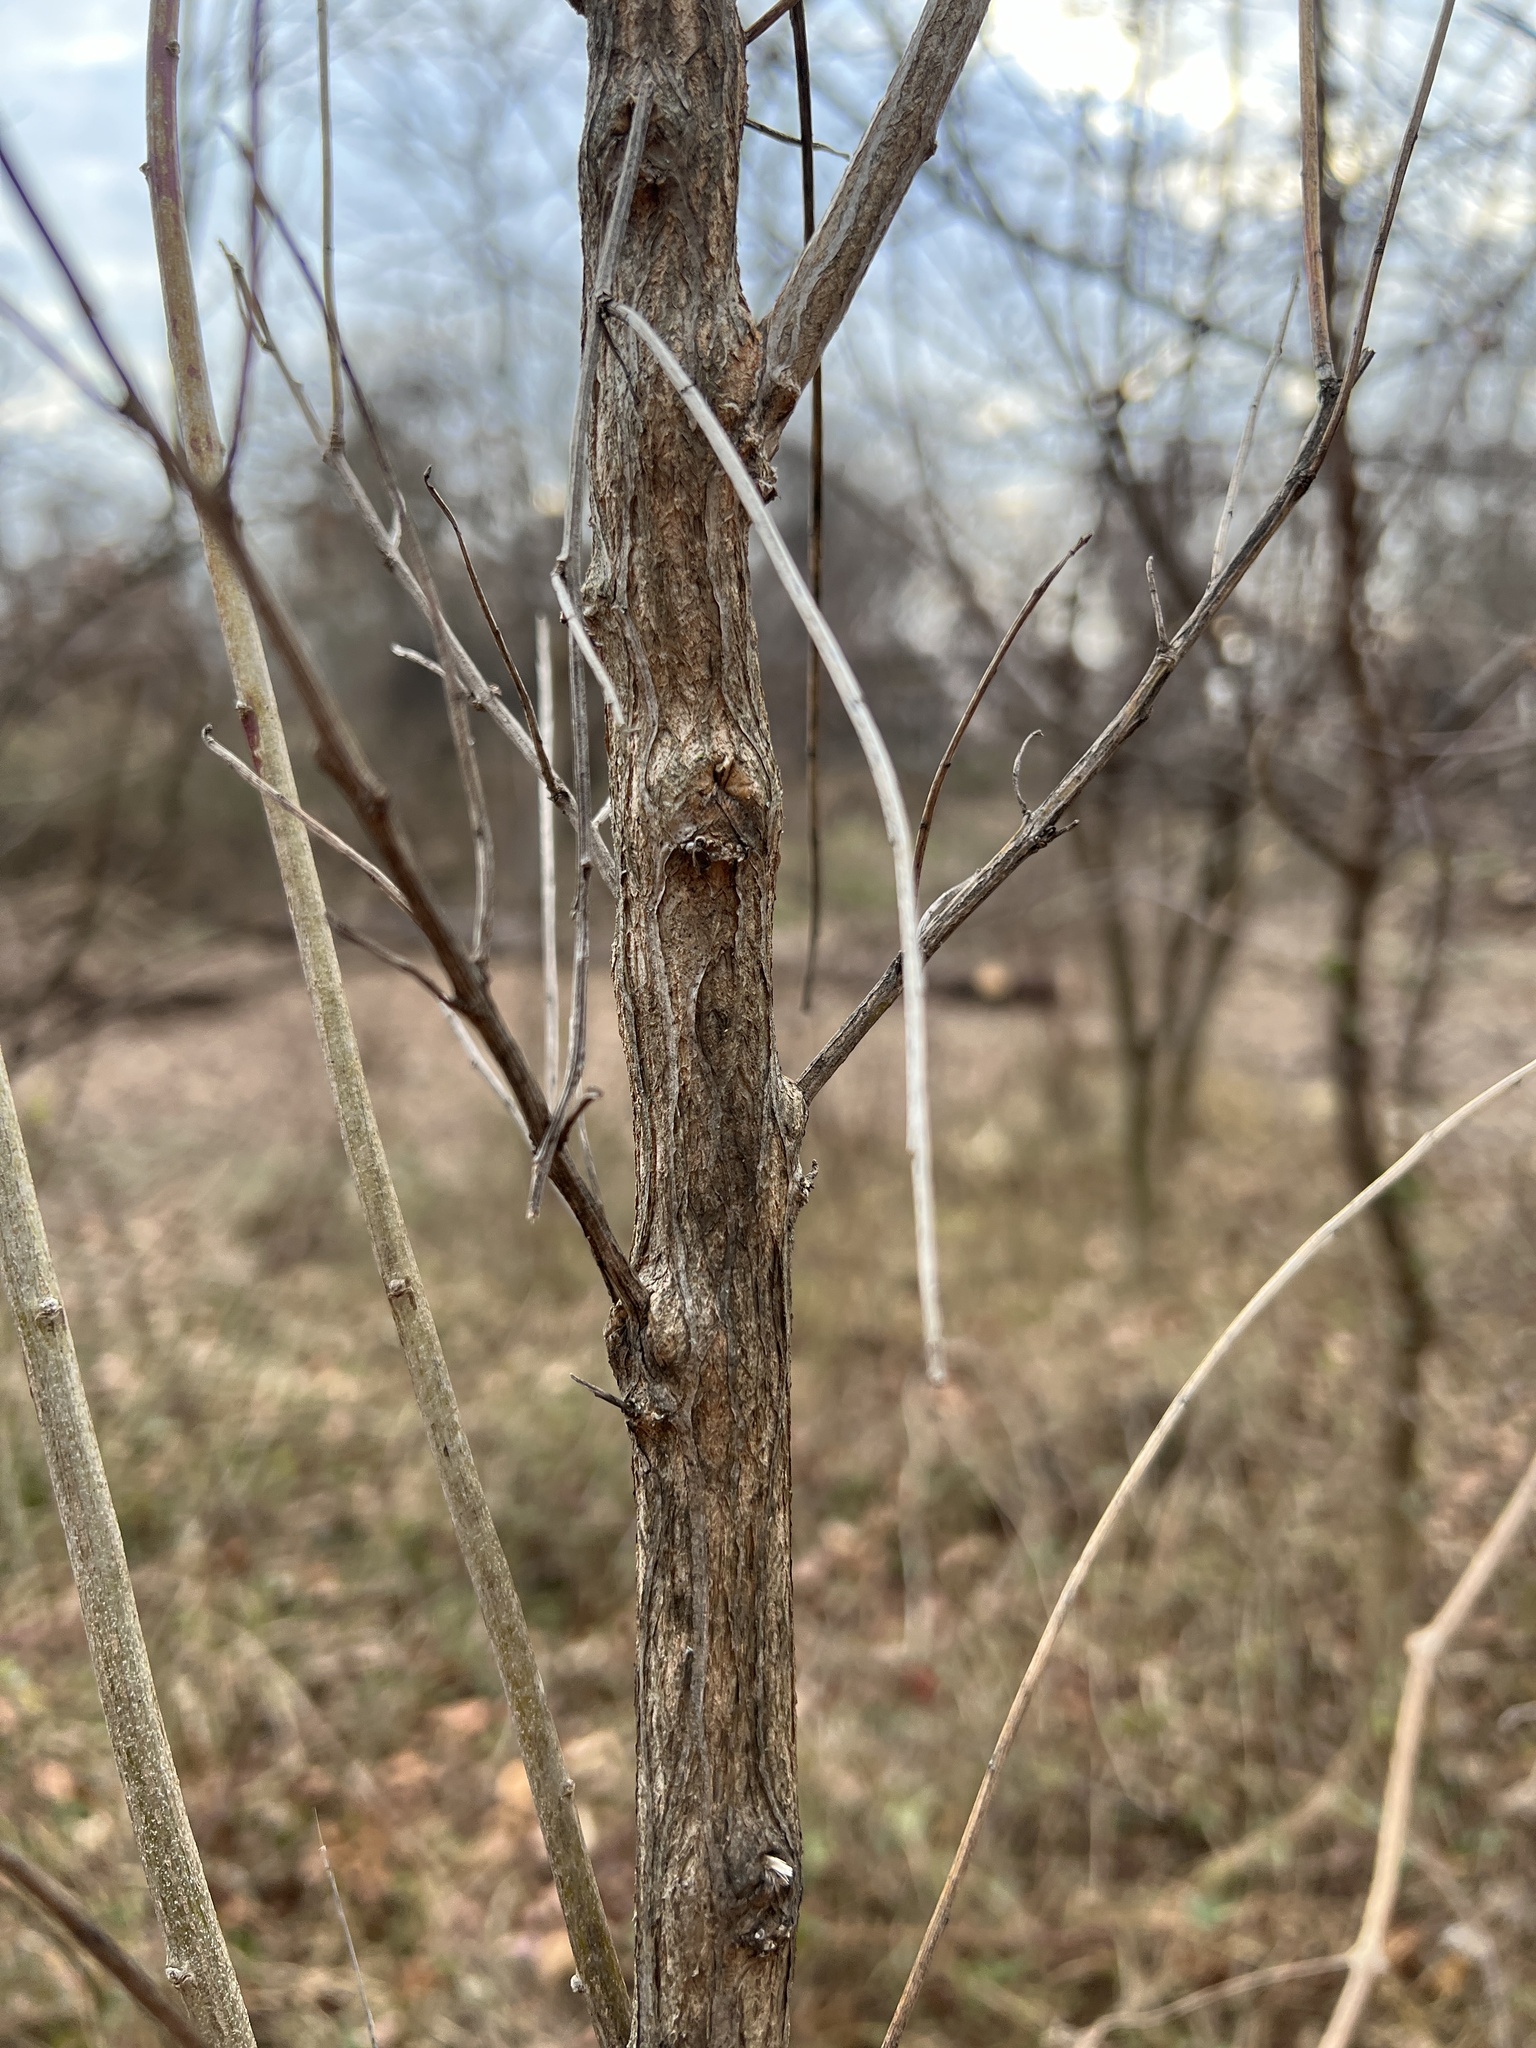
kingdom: Plantae
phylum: Tracheophyta
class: Magnoliopsida
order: Asterales
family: Asteraceae
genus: Baccharis
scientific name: Baccharis halimifolia
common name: Eastern baccharis
